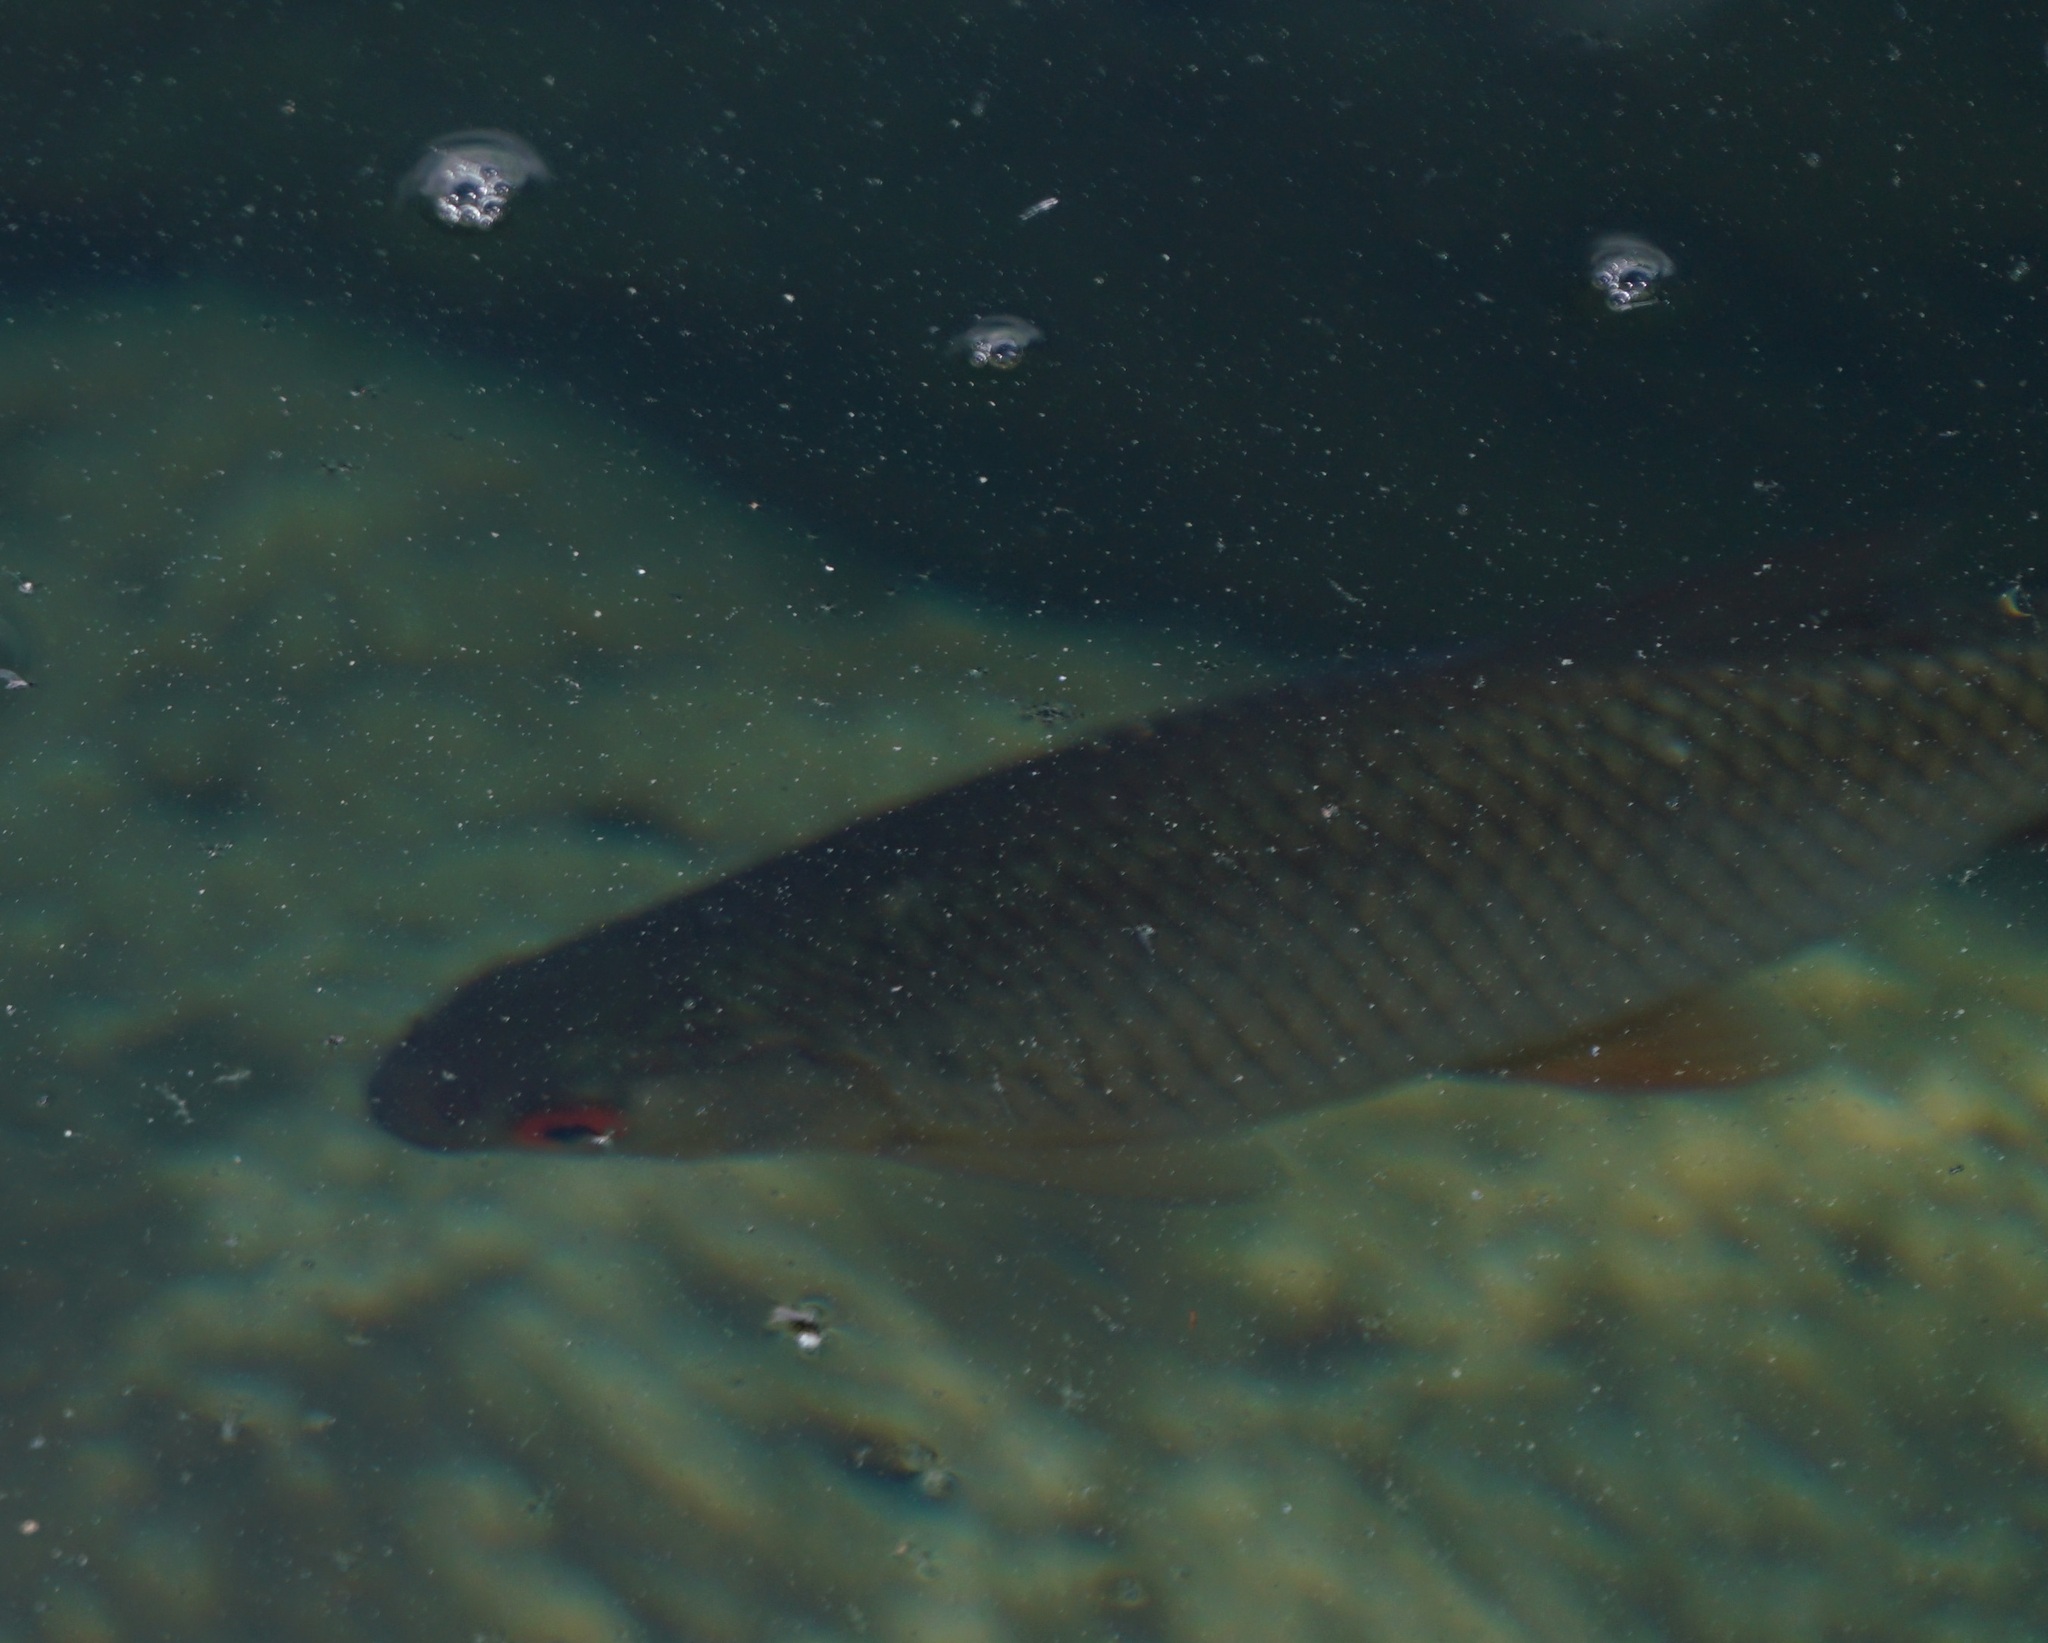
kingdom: Animalia
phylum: Chordata
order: Cypriniformes
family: Cyprinidae
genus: Rutilus
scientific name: Rutilus rutilus
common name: Roach
